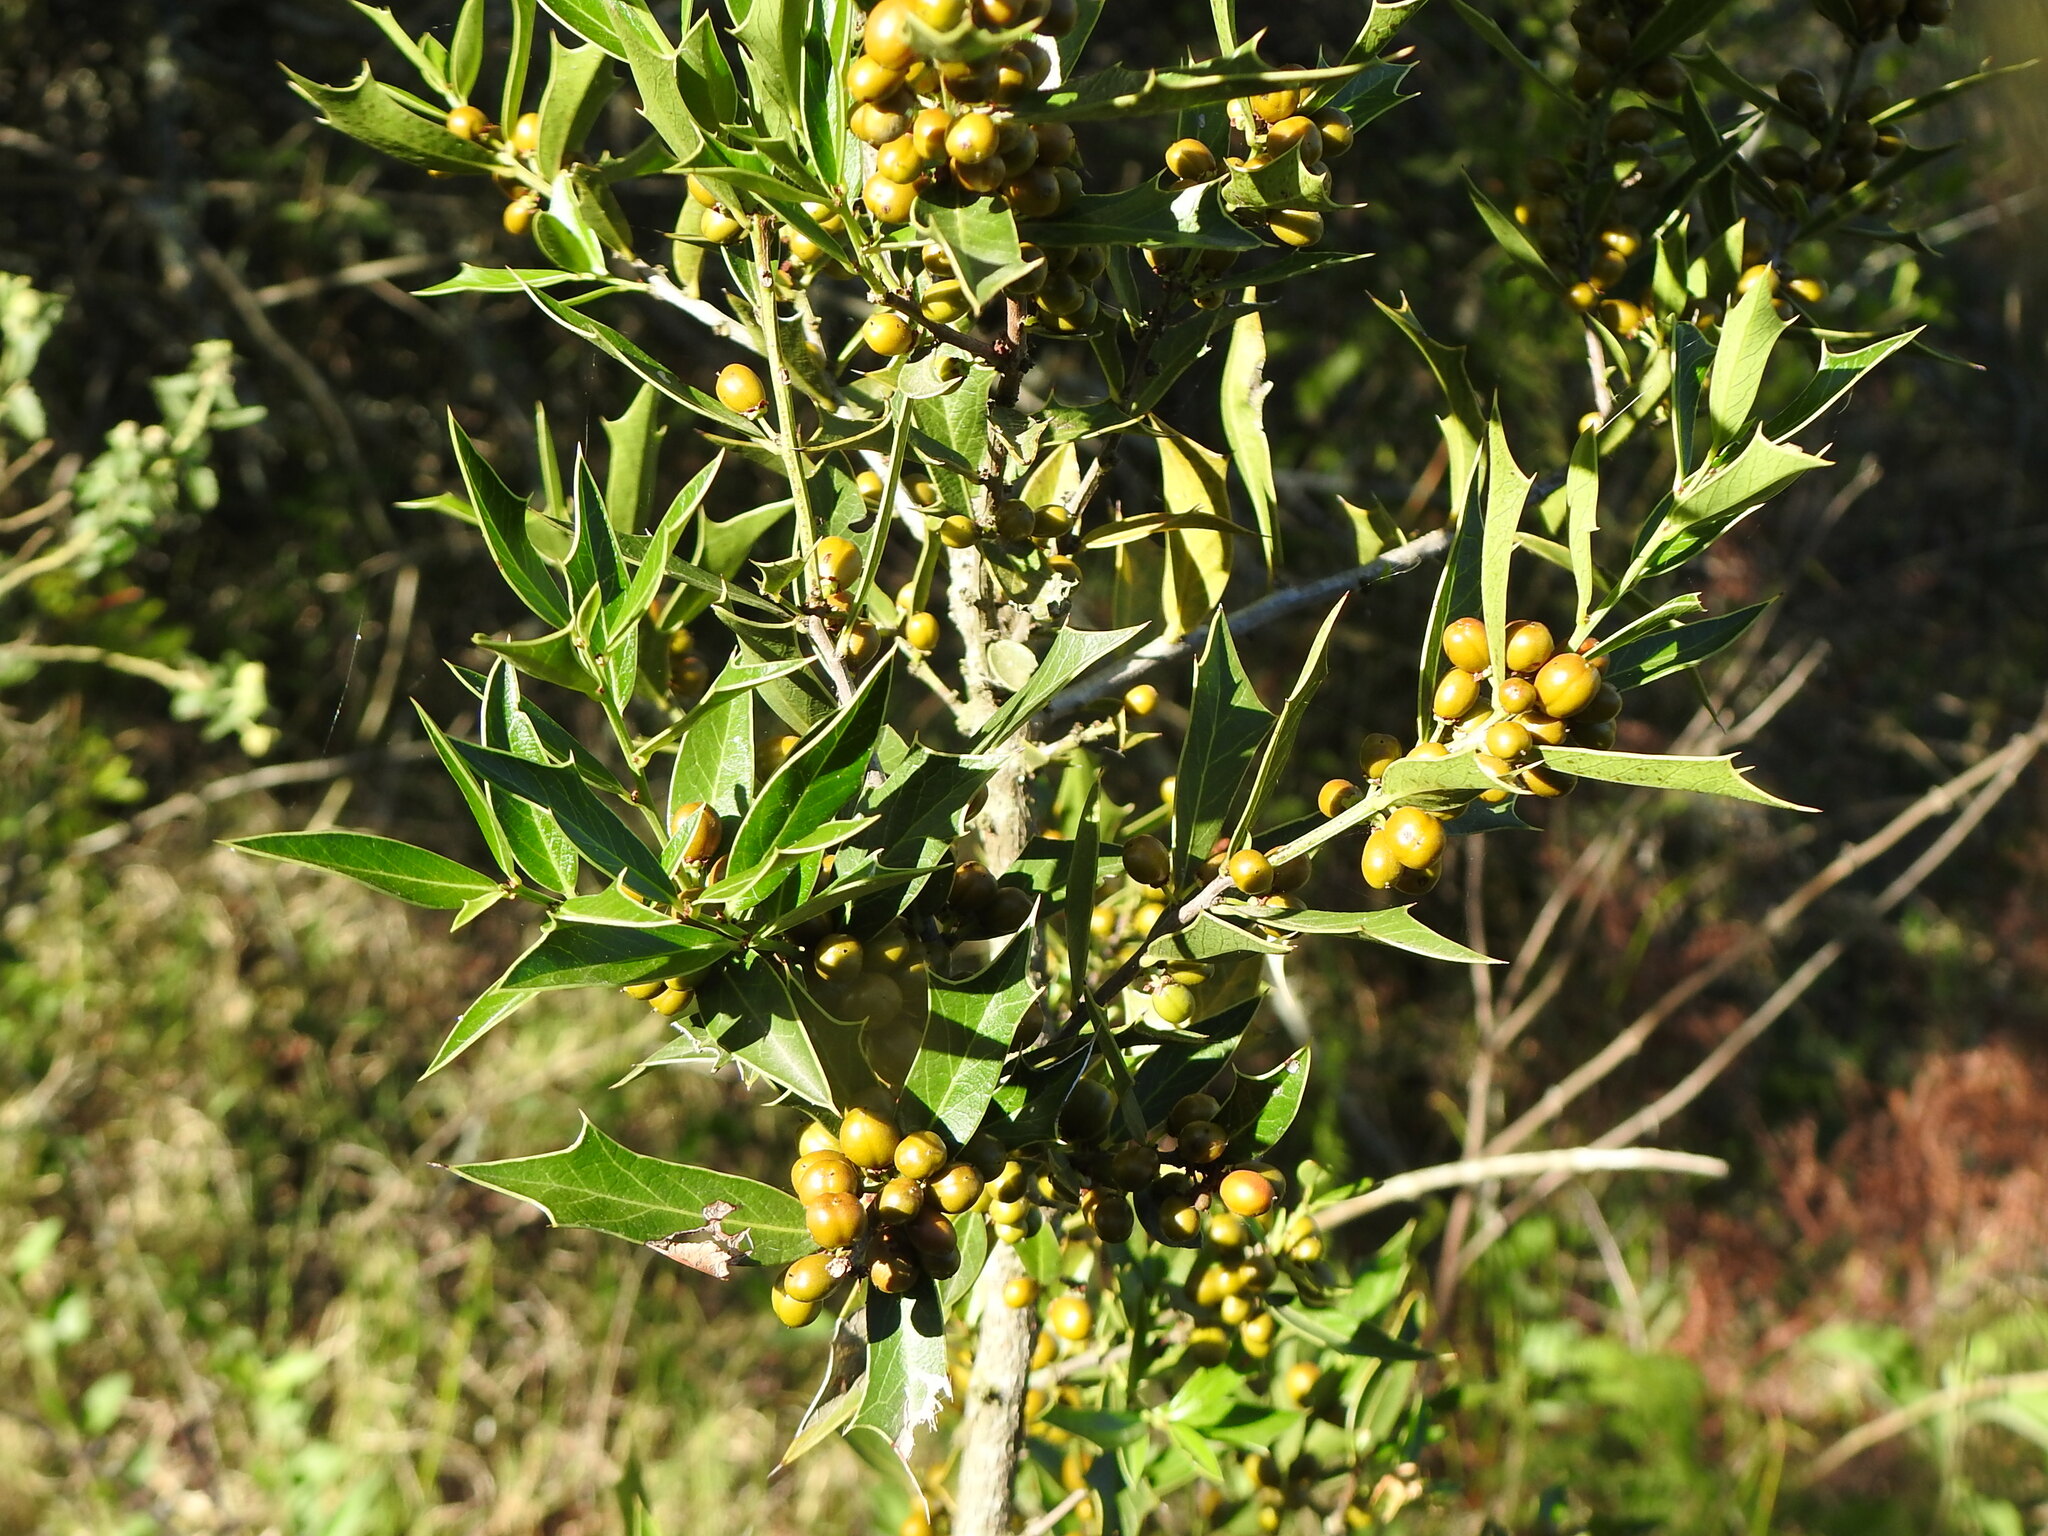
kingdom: Plantae
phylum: Tracheophyta
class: Magnoliopsida
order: Celastrales
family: Celastraceae
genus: Monteverdia
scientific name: Monteverdia
